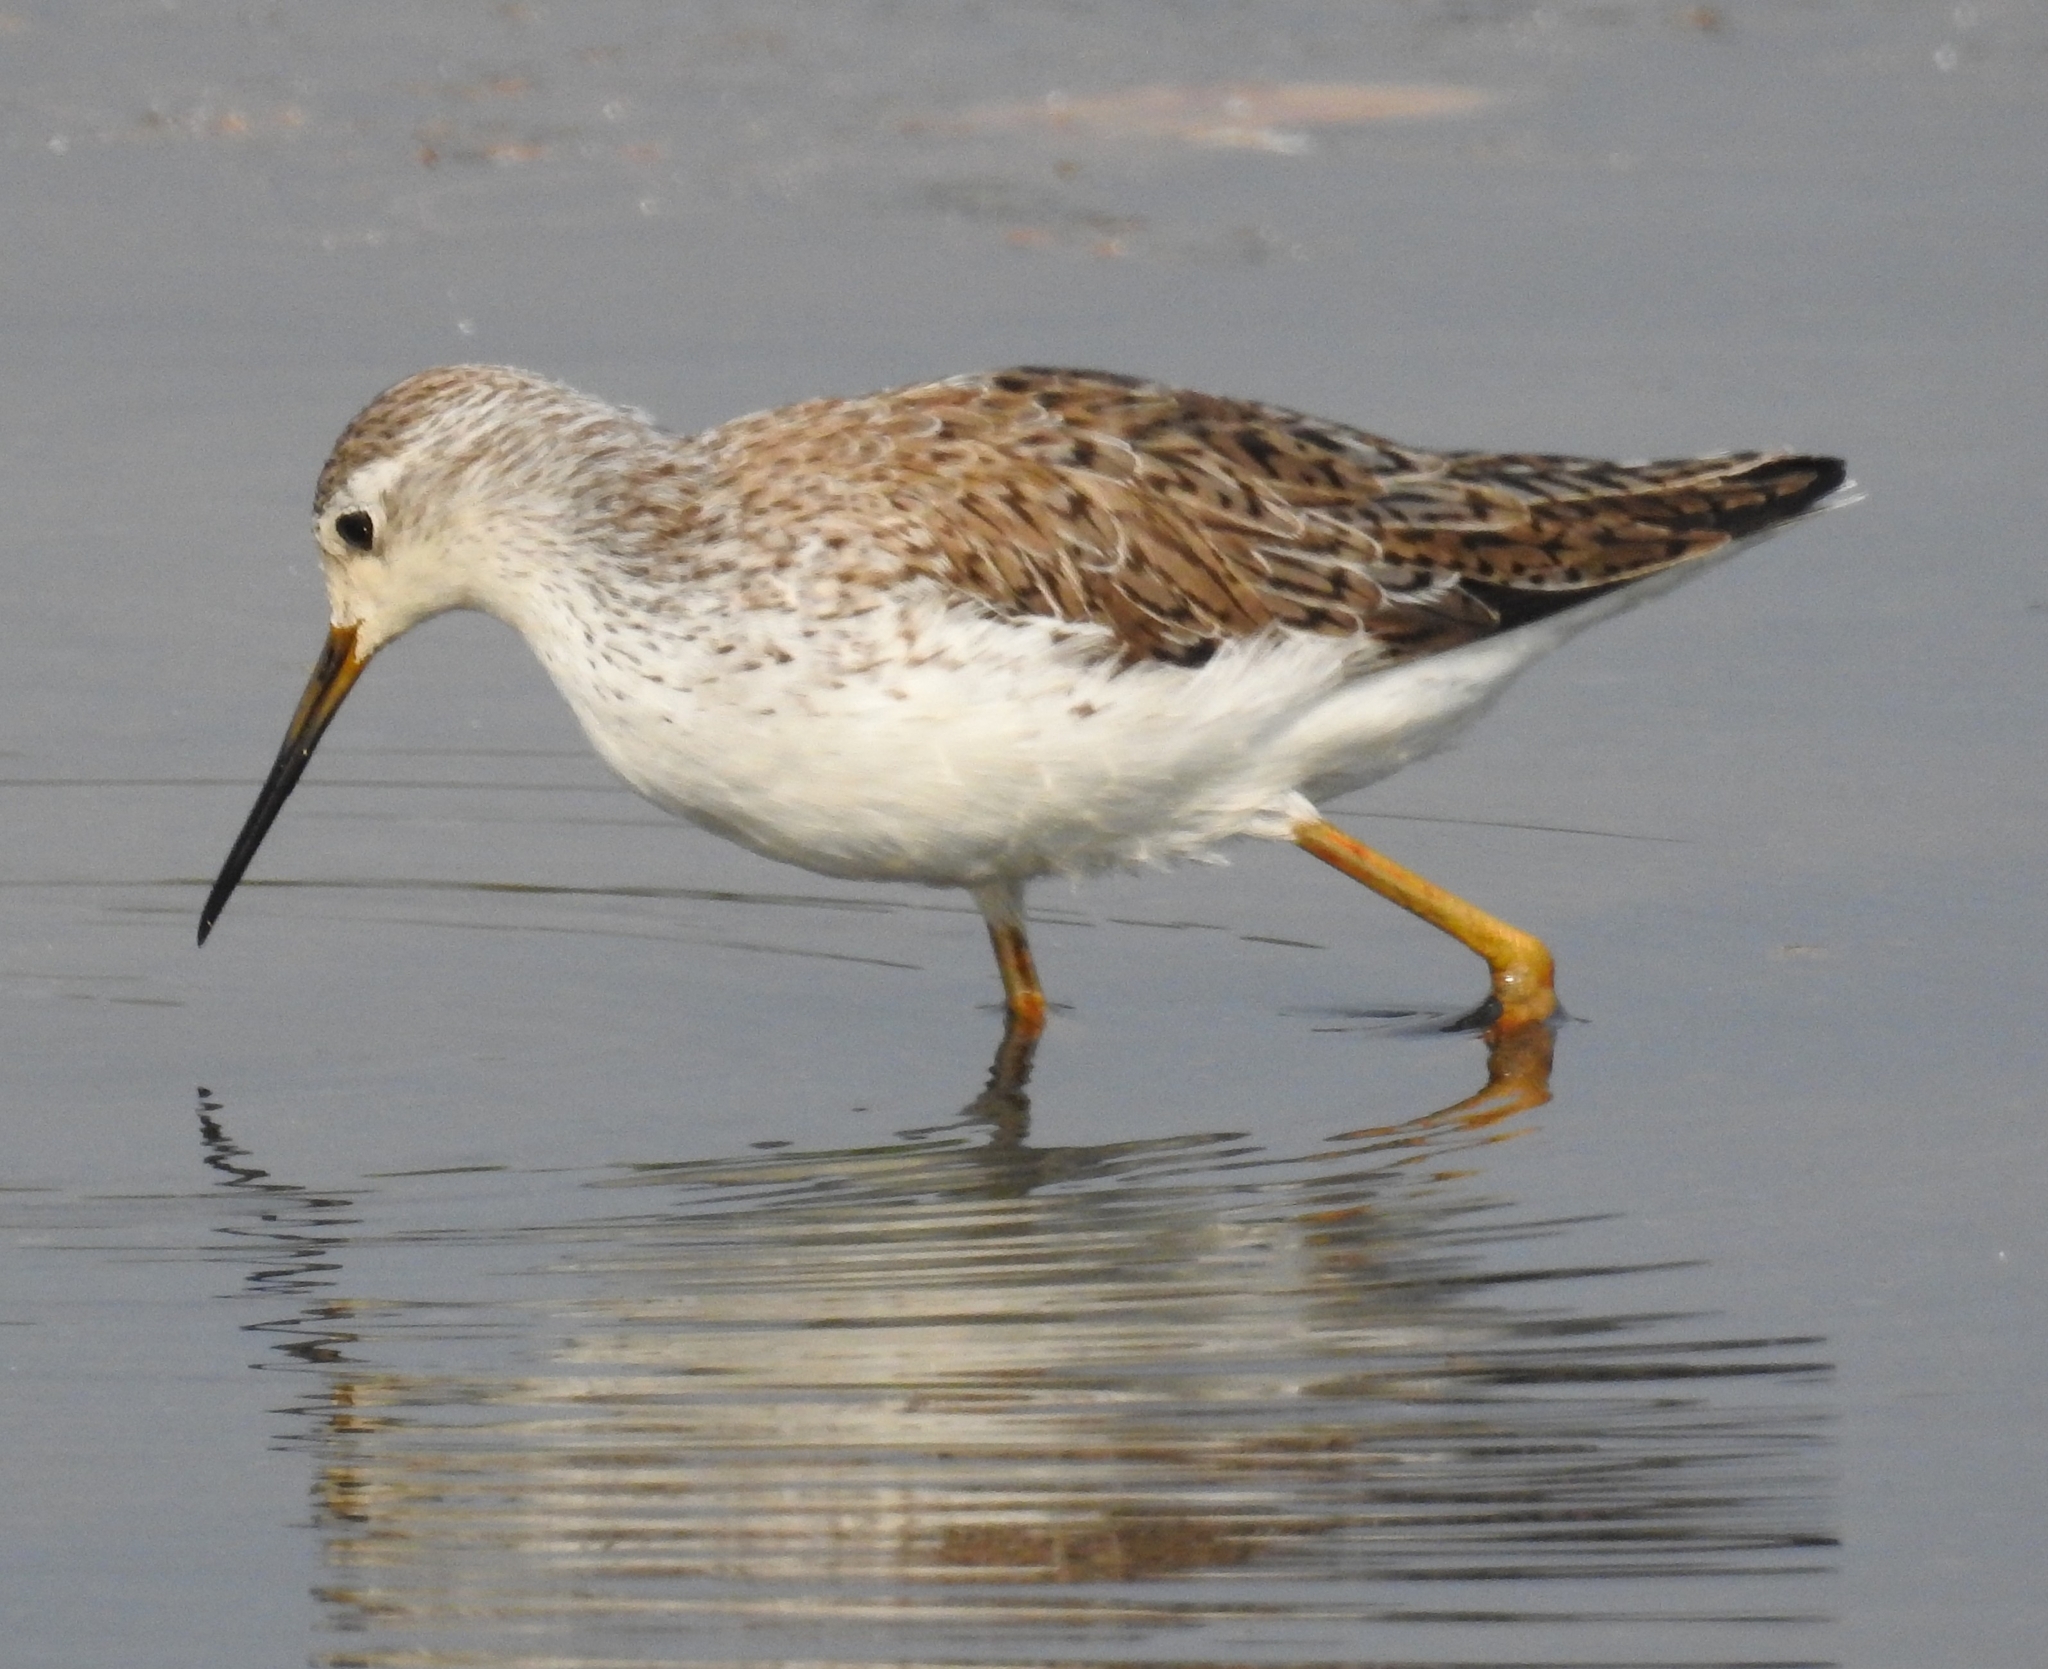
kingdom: Animalia
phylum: Chordata
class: Aves
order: Charadriiformes
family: Scolopacidae
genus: Tringa
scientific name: Tringa stagnatilis
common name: Marsh sandpiper
